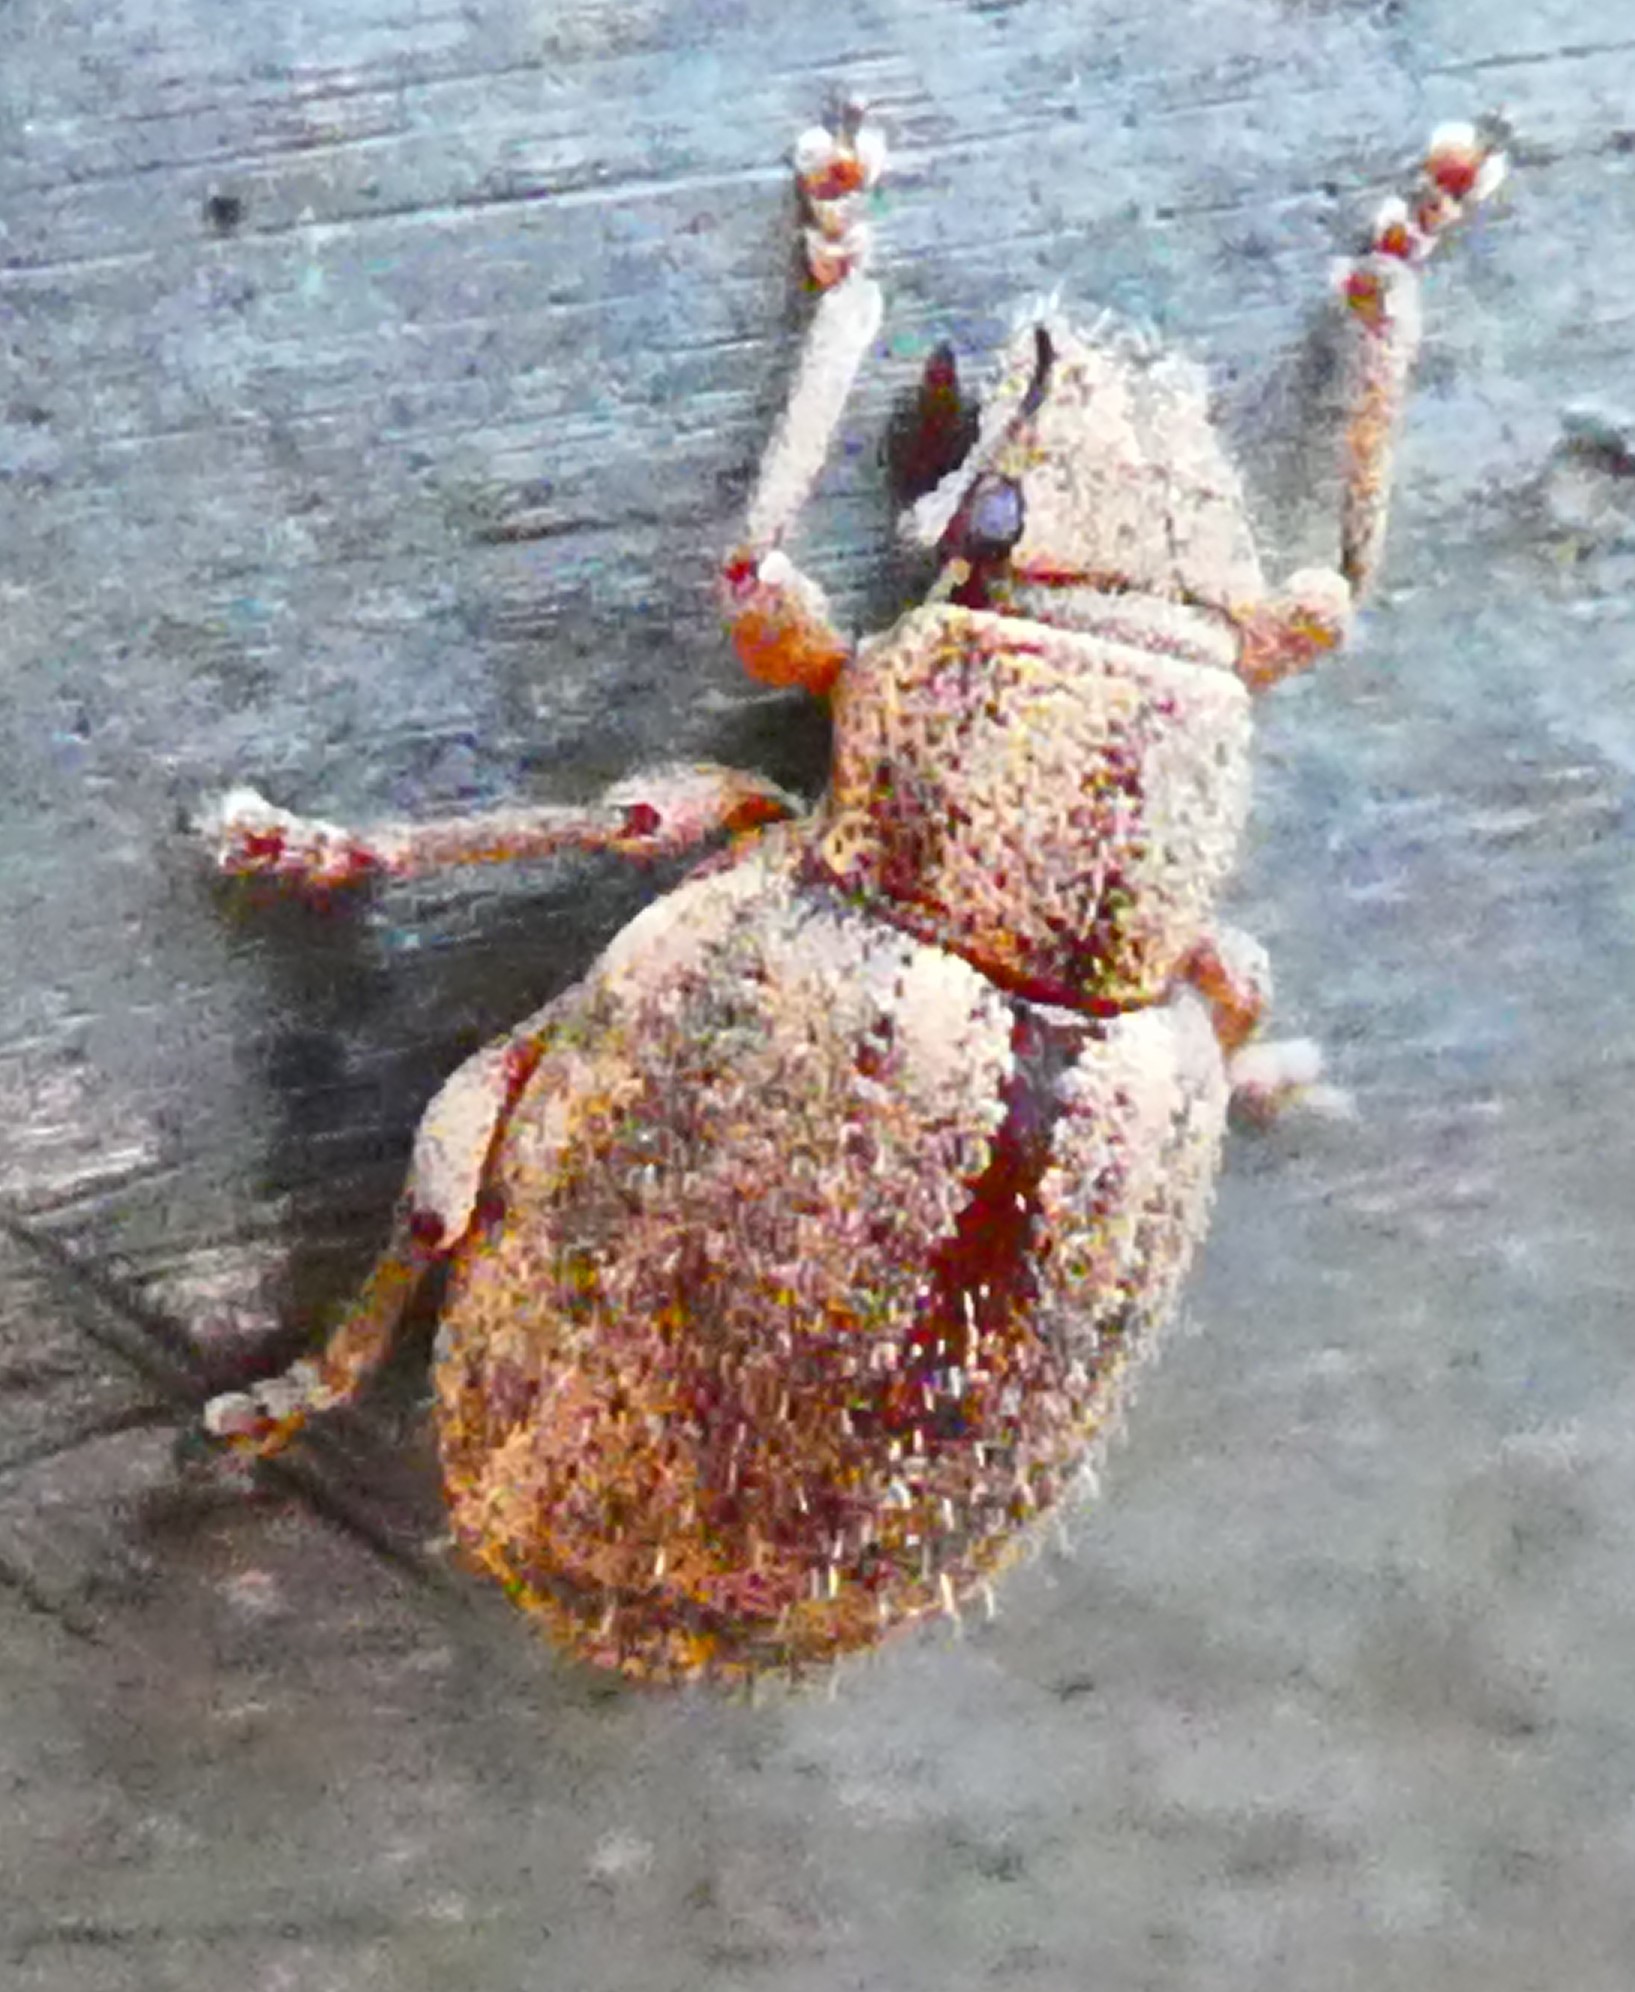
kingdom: Animalia
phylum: Arthropoda
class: Insecta
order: Coleoptera
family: Curculionidae
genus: Strophosoma
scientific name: Strophosoma melanogrammum
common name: Weevil
